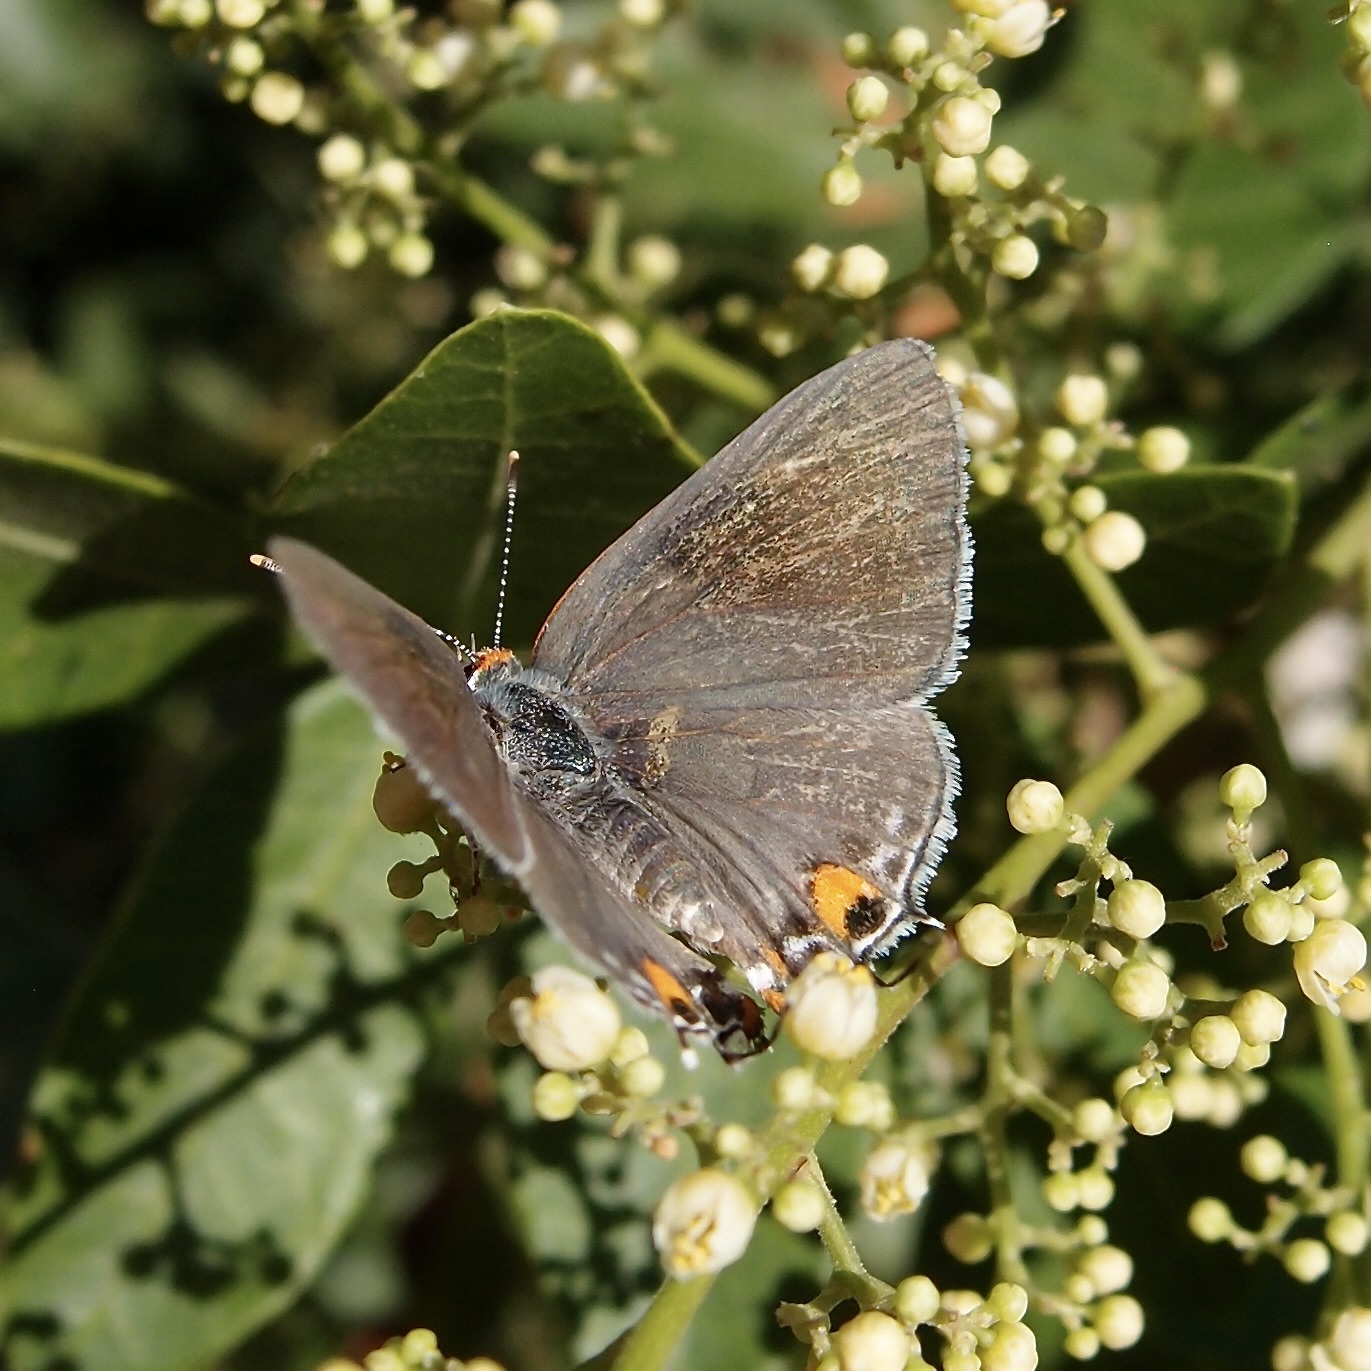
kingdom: Animalia
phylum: Arthropoda
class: Insecta
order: Lepidoptera
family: Lycaenidae
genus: Strymon
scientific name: Strymon melinus
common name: Gray hairstreak
